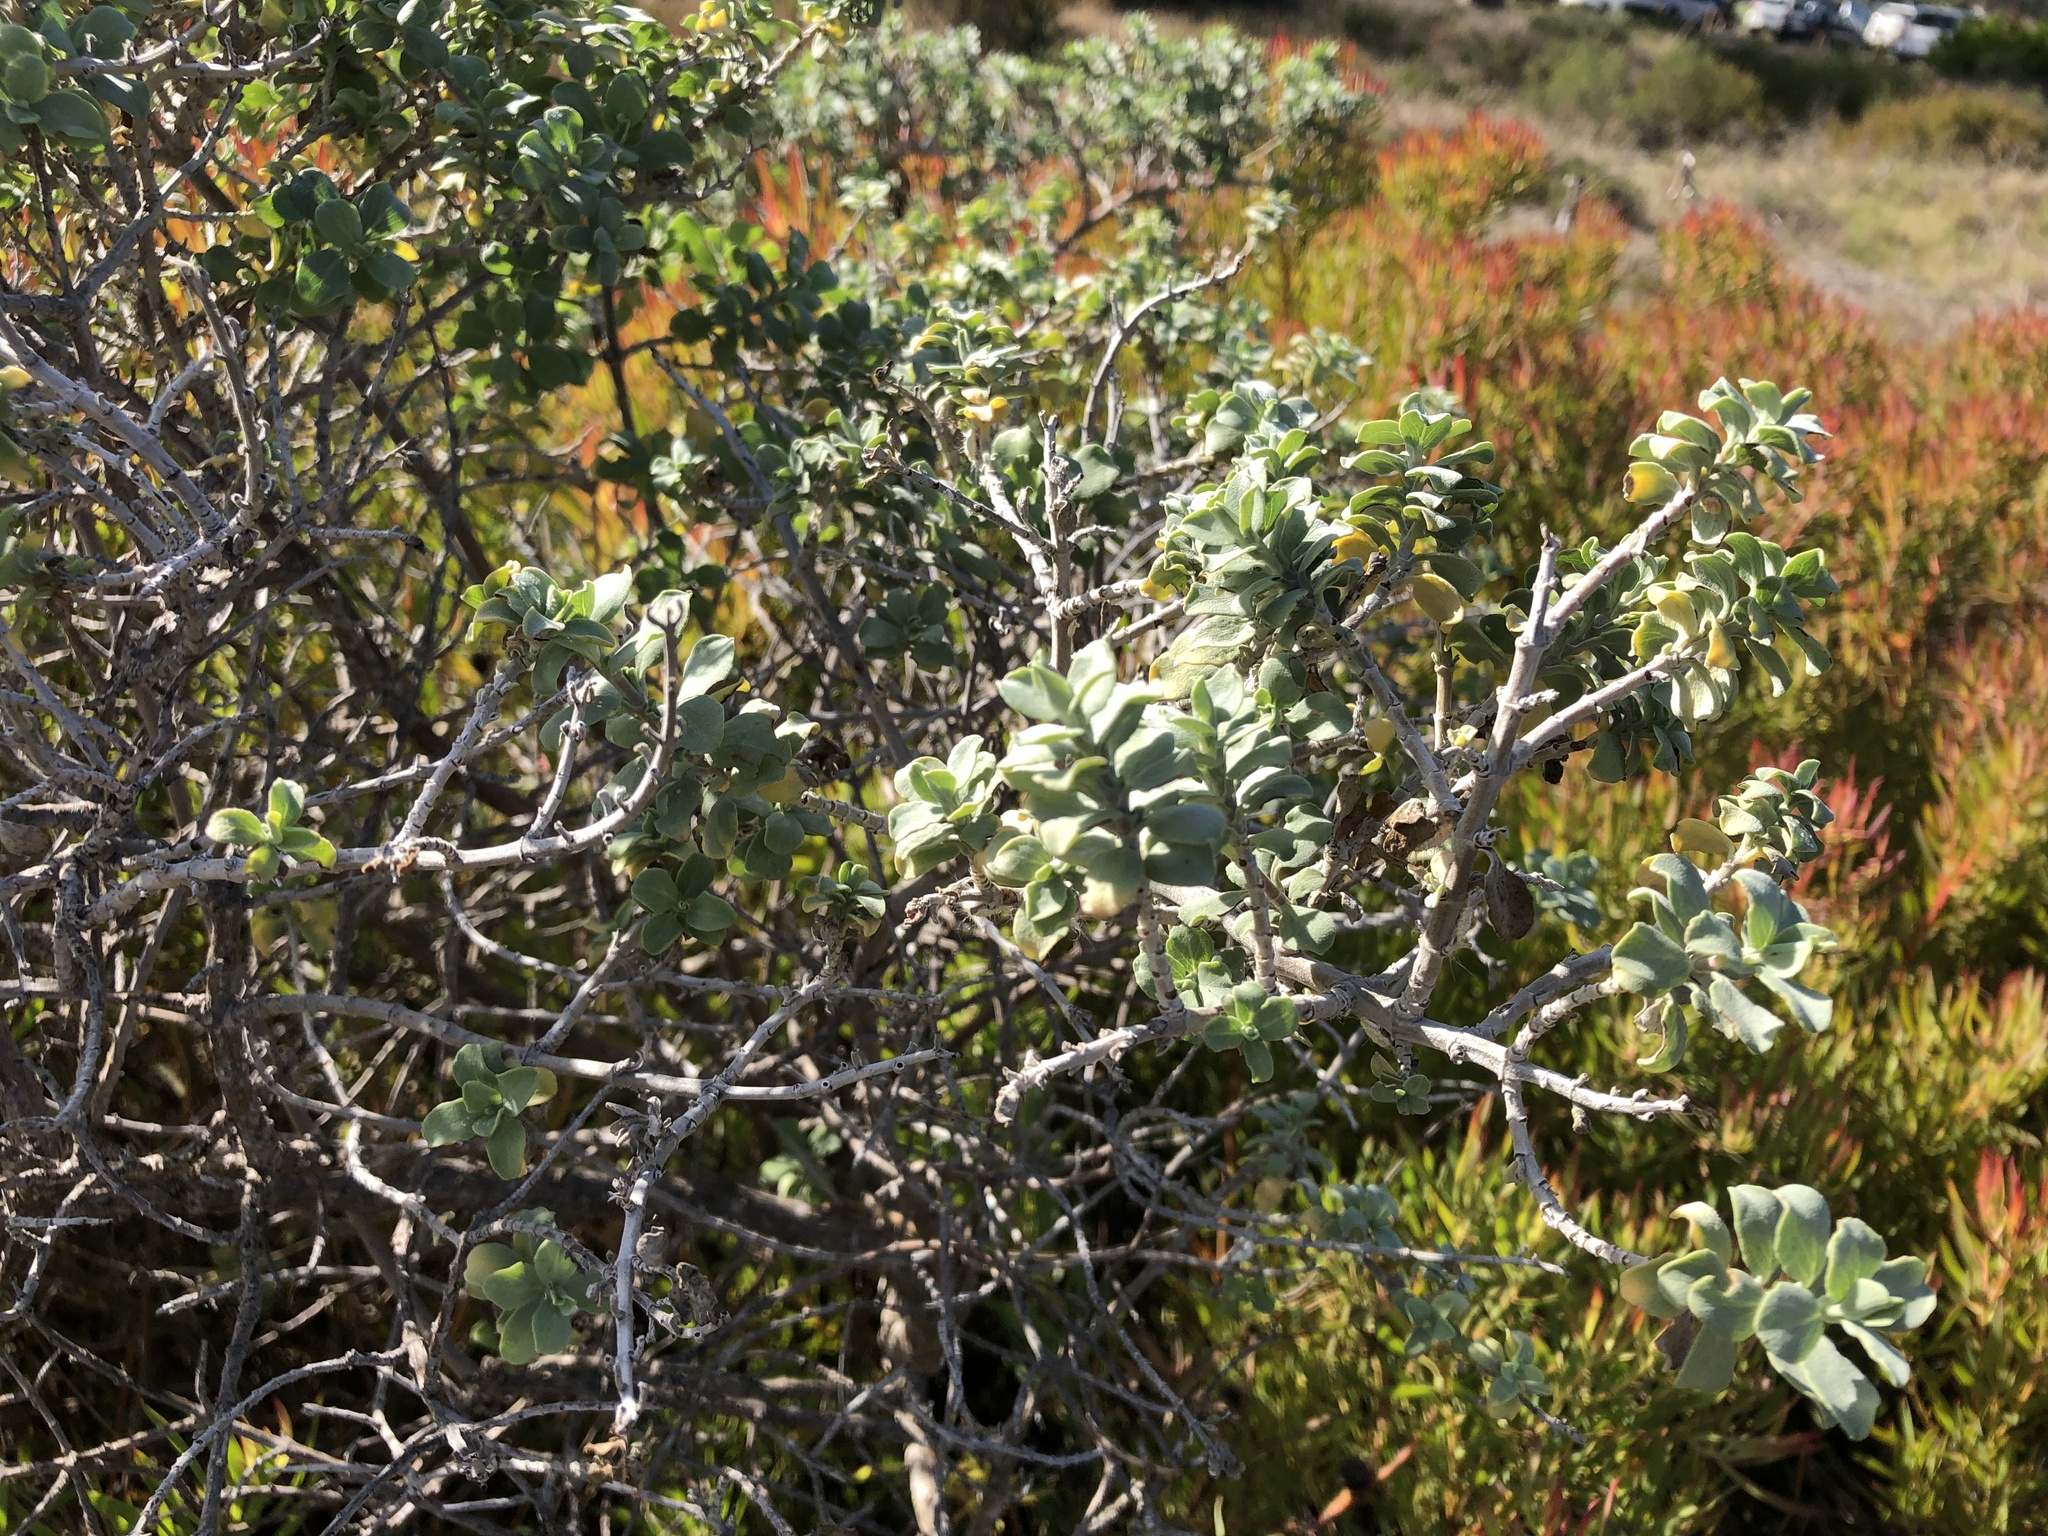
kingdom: Plantae
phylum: Tracheophyta
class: Magnoliopsida
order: Lamiales
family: Lamiaceae
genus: Salvia
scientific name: Salvia aurea
